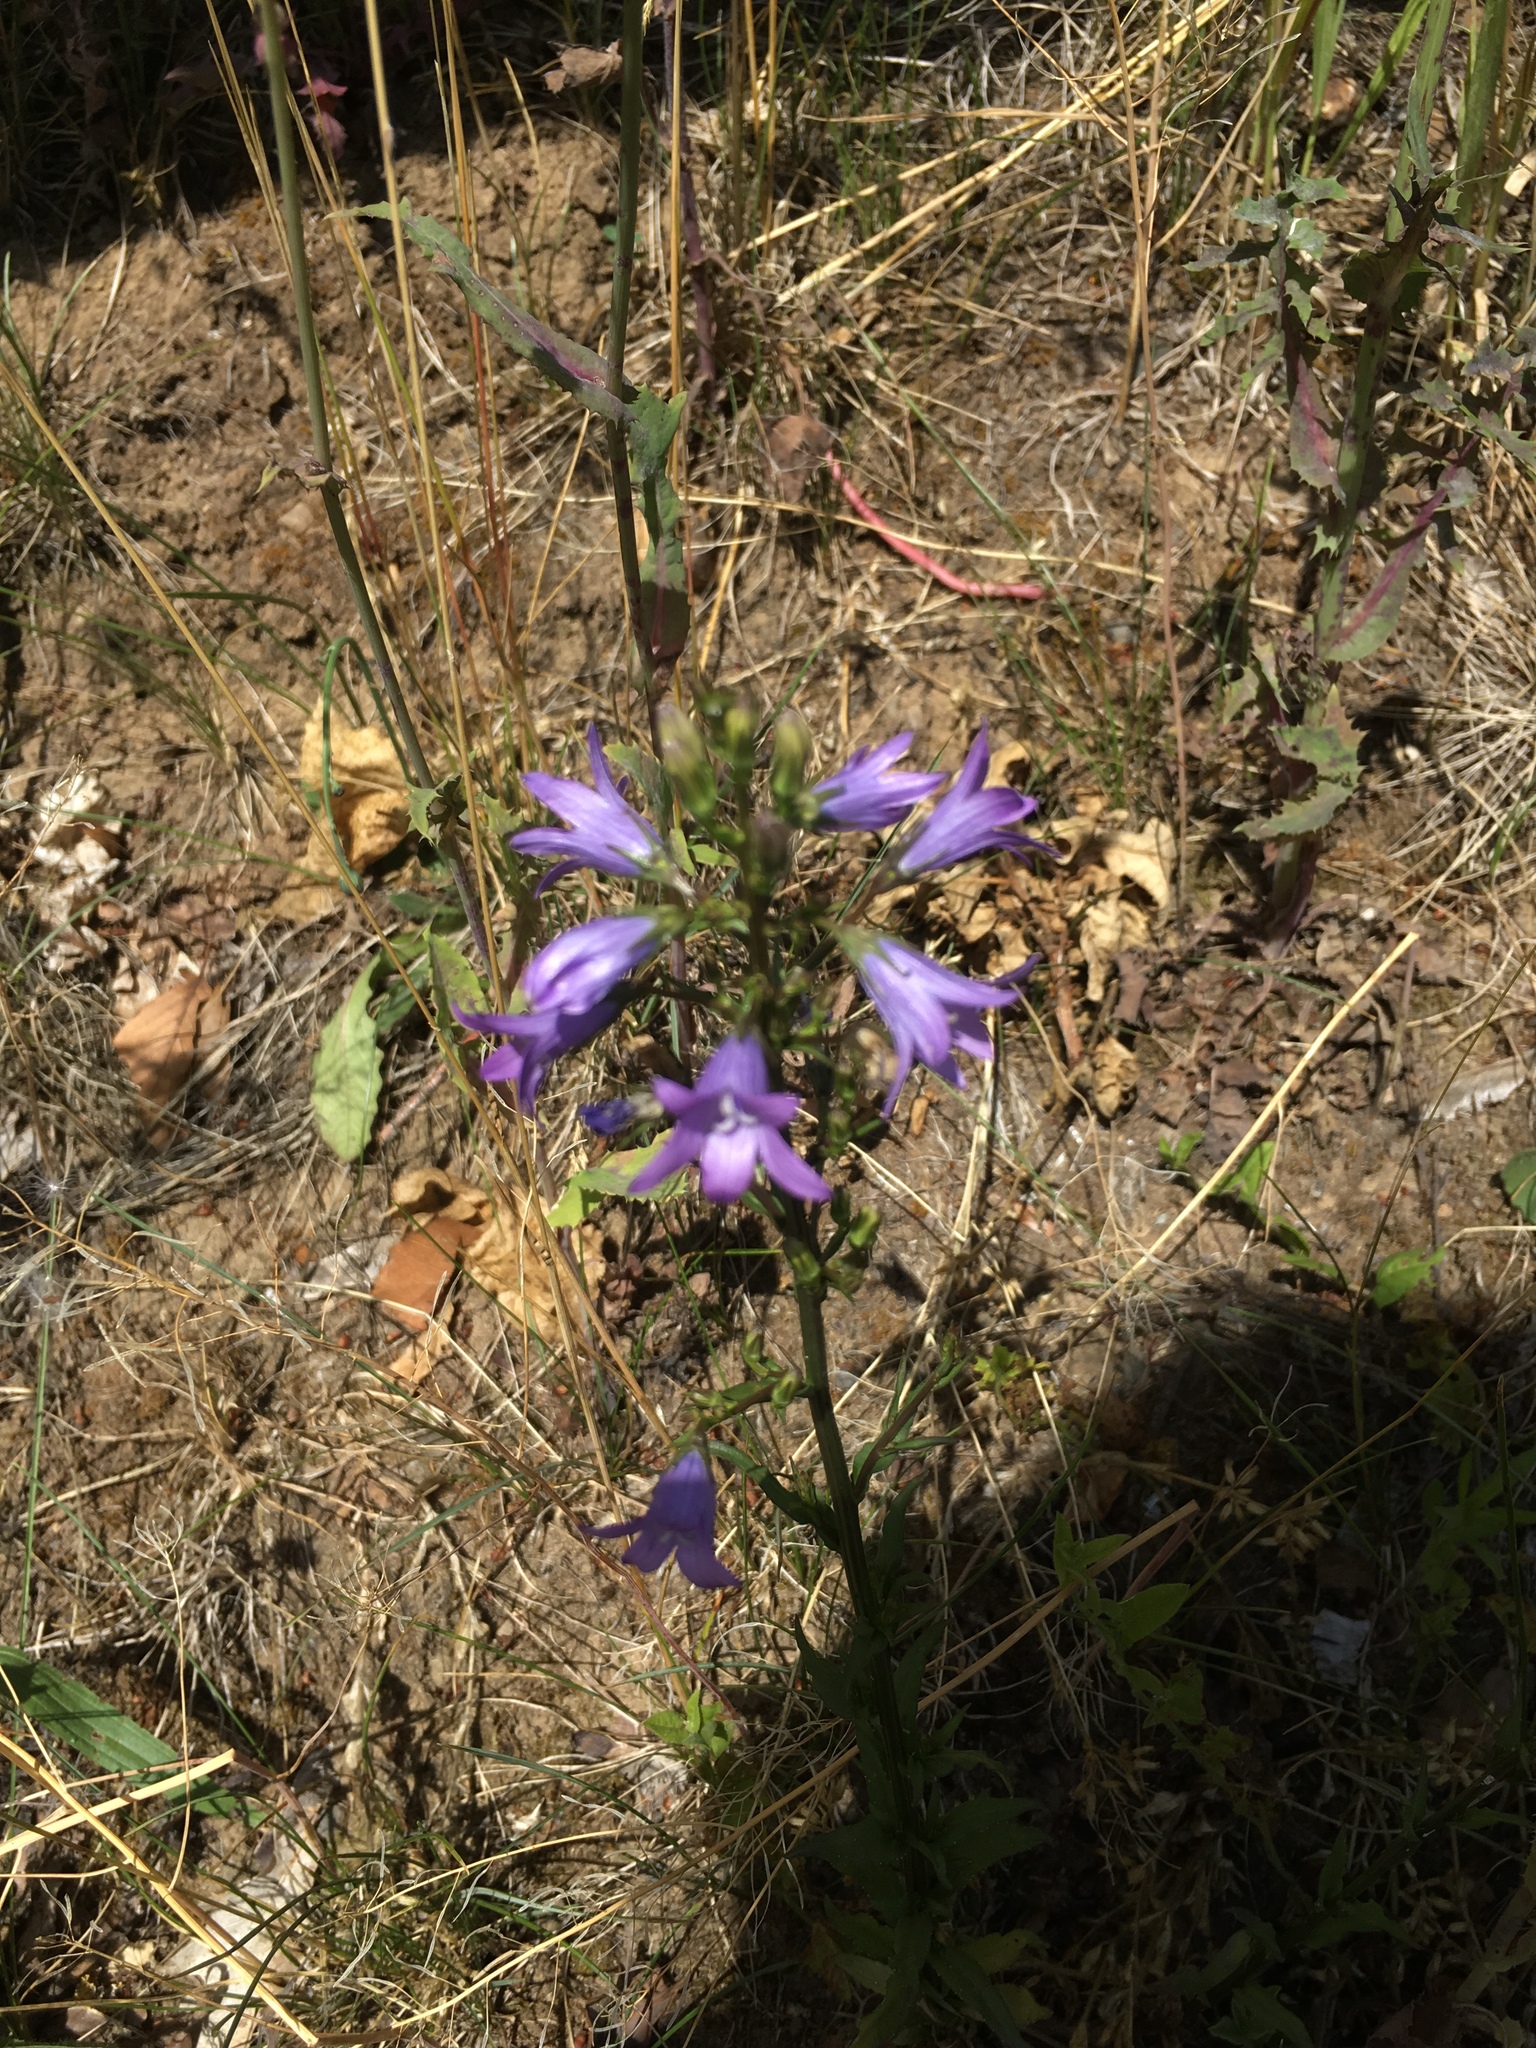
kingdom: Plantae
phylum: Tracheophyta
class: Magnoliopsida
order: Asterales
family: Campanulaceae
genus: Campanula
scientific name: Campanula rapunculus
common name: Rampion bellflower
